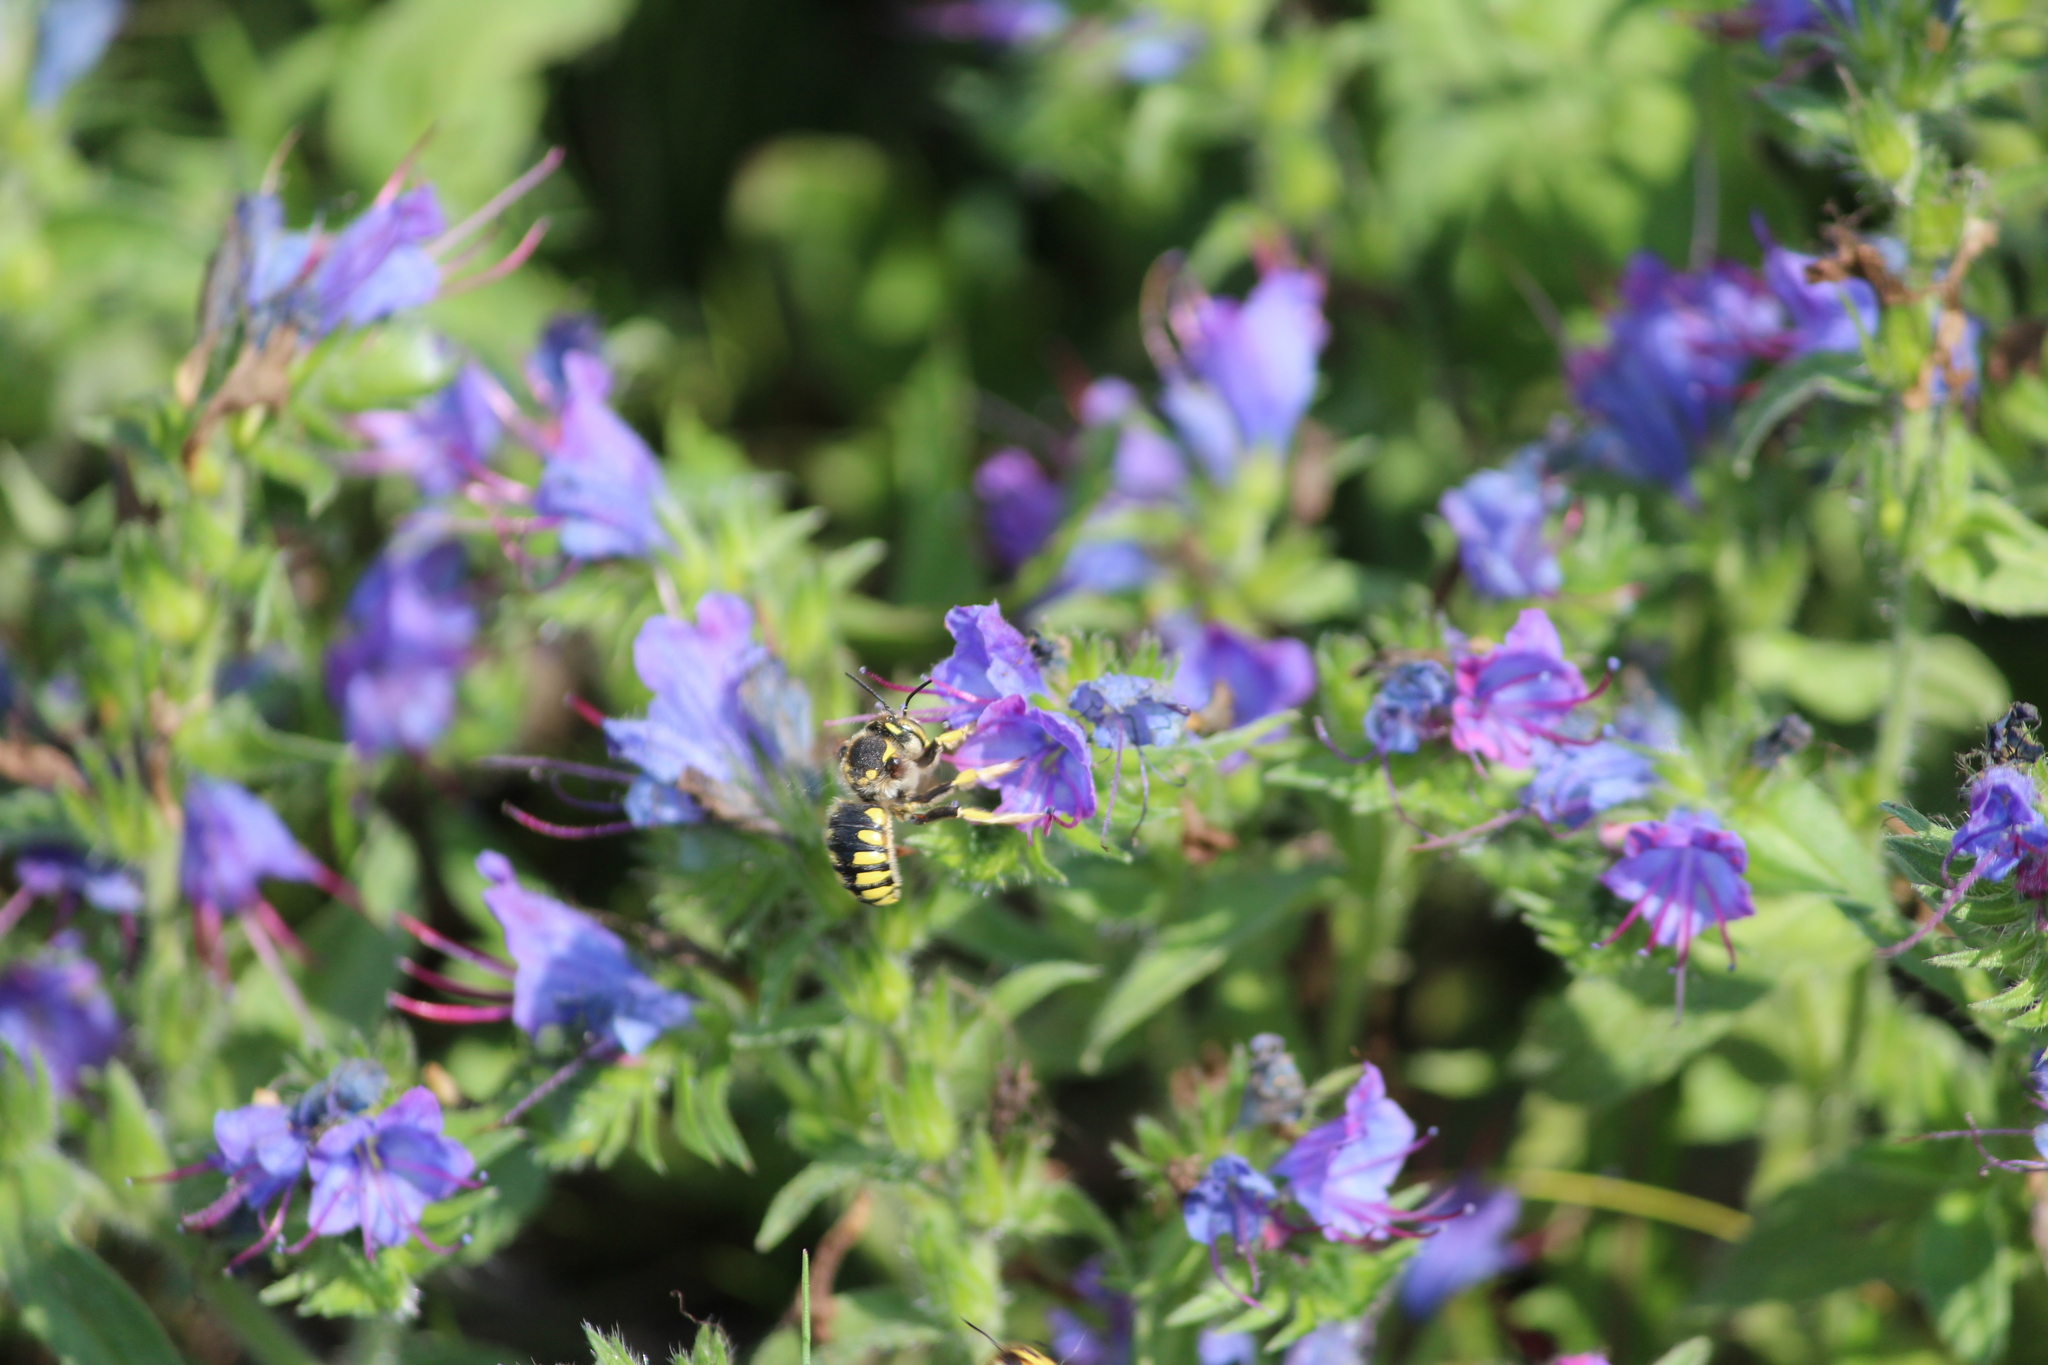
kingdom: Animalia
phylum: Arthropoda
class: Insecta
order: Hymenoptera
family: Megachilidae
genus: Anthidium
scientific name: Anthidium florentinum
